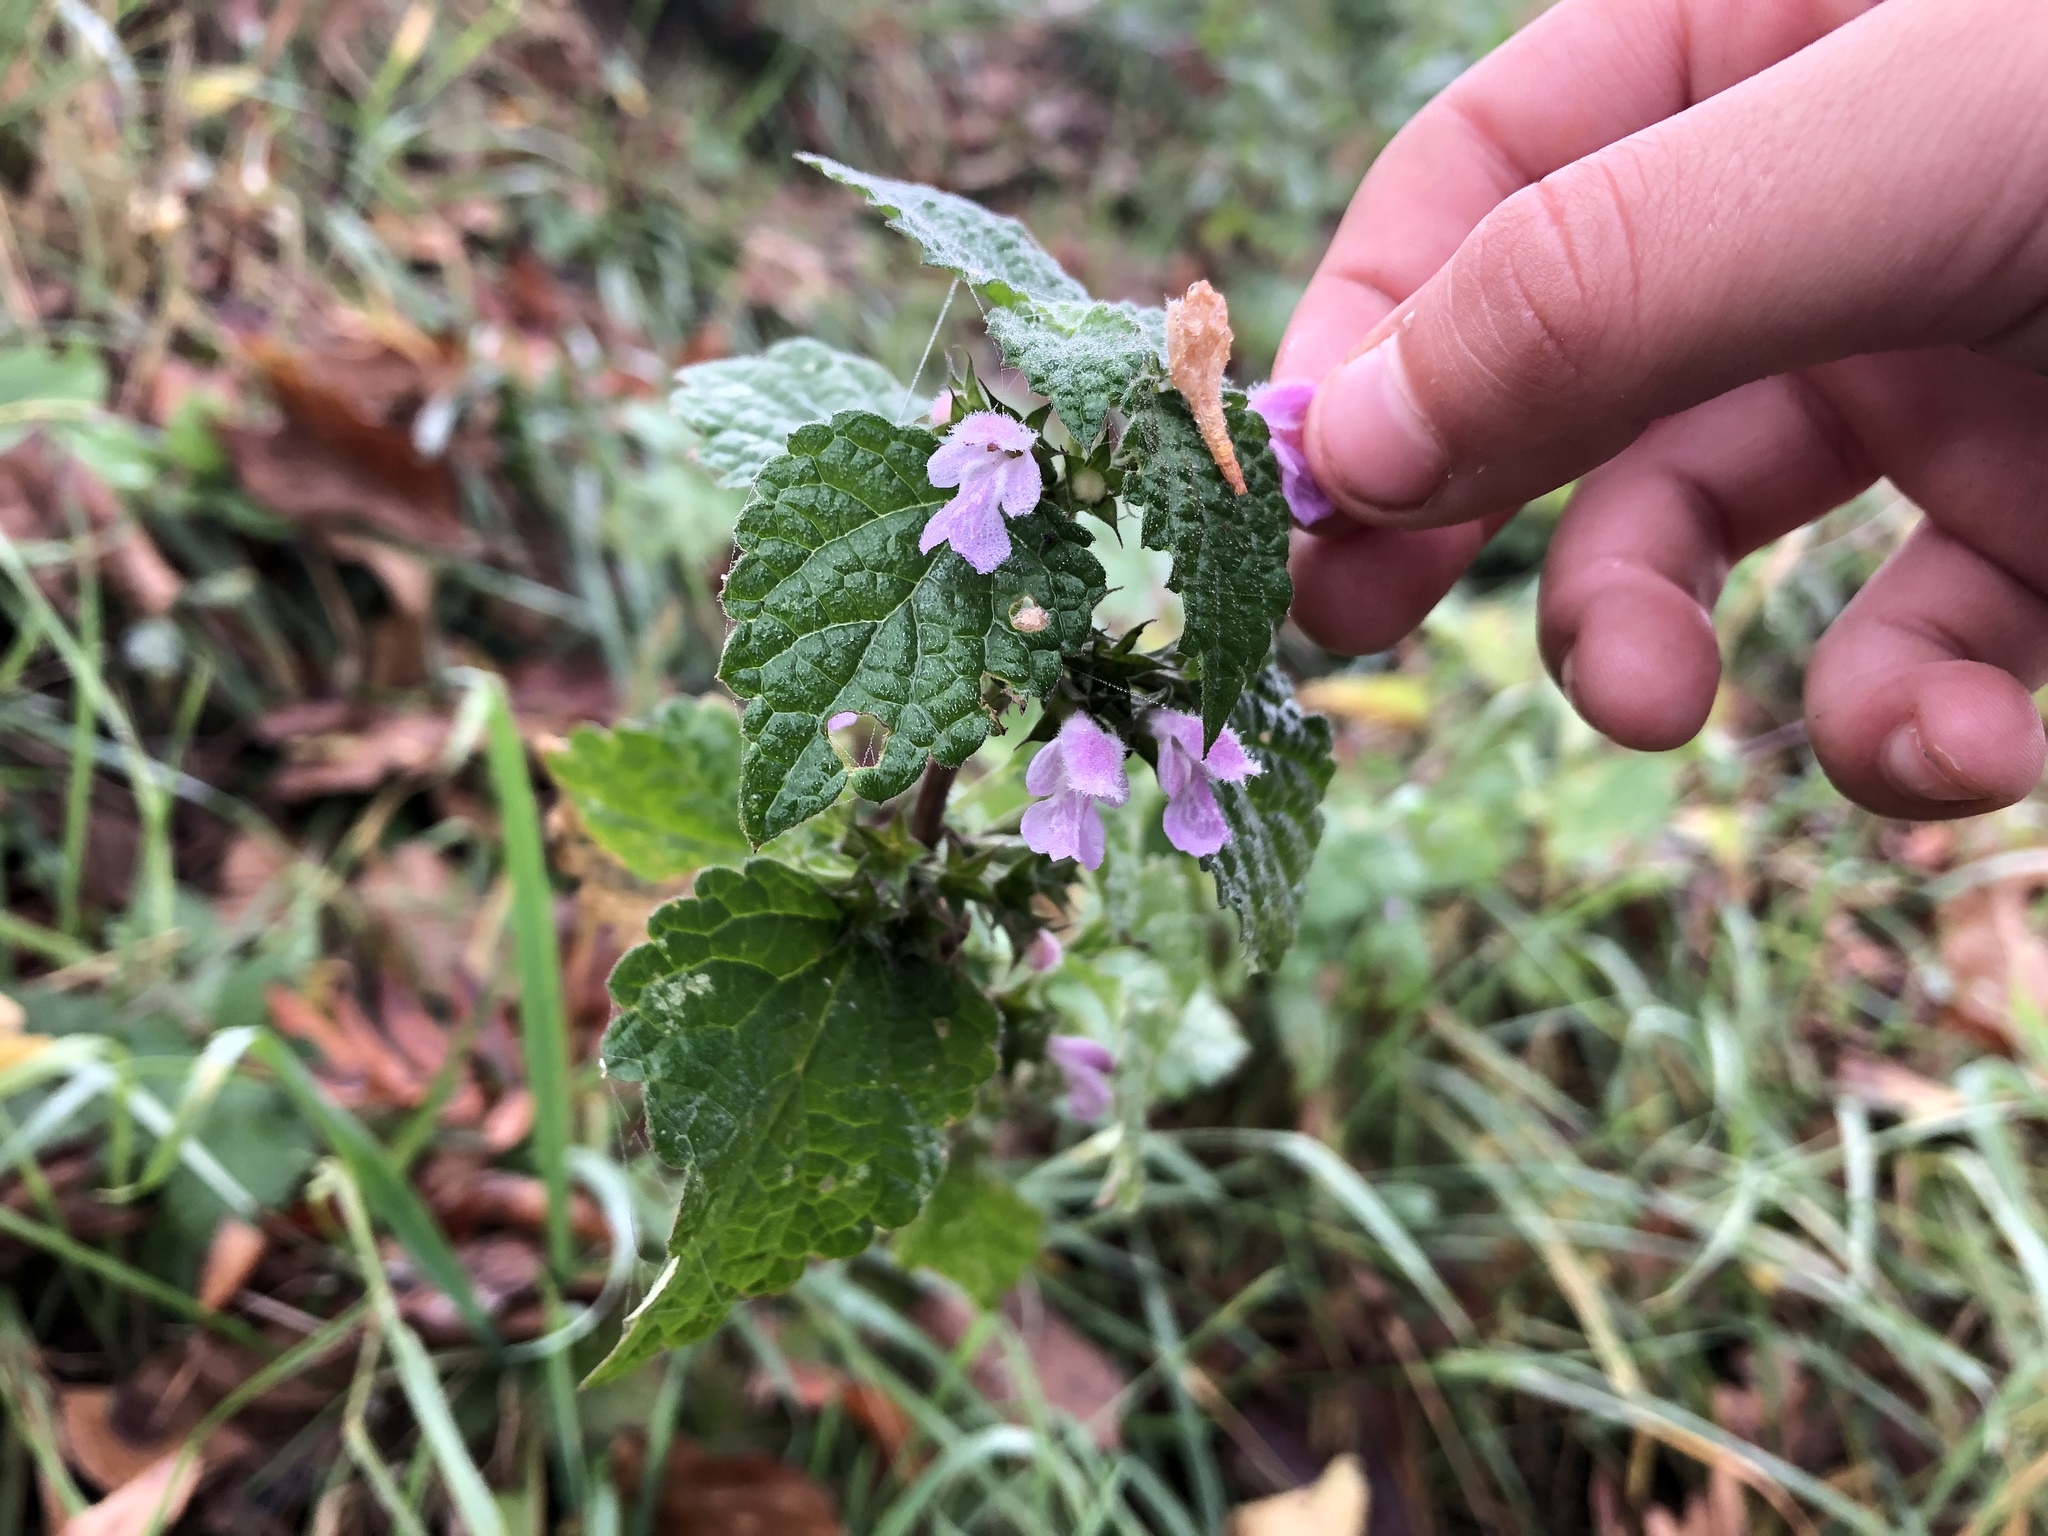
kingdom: Plantae
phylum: Tracheophyta
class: Magnoliopsida
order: Lamiales
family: Lamiaceae
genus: Ballota
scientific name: Ballota nigra
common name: Black horehound
